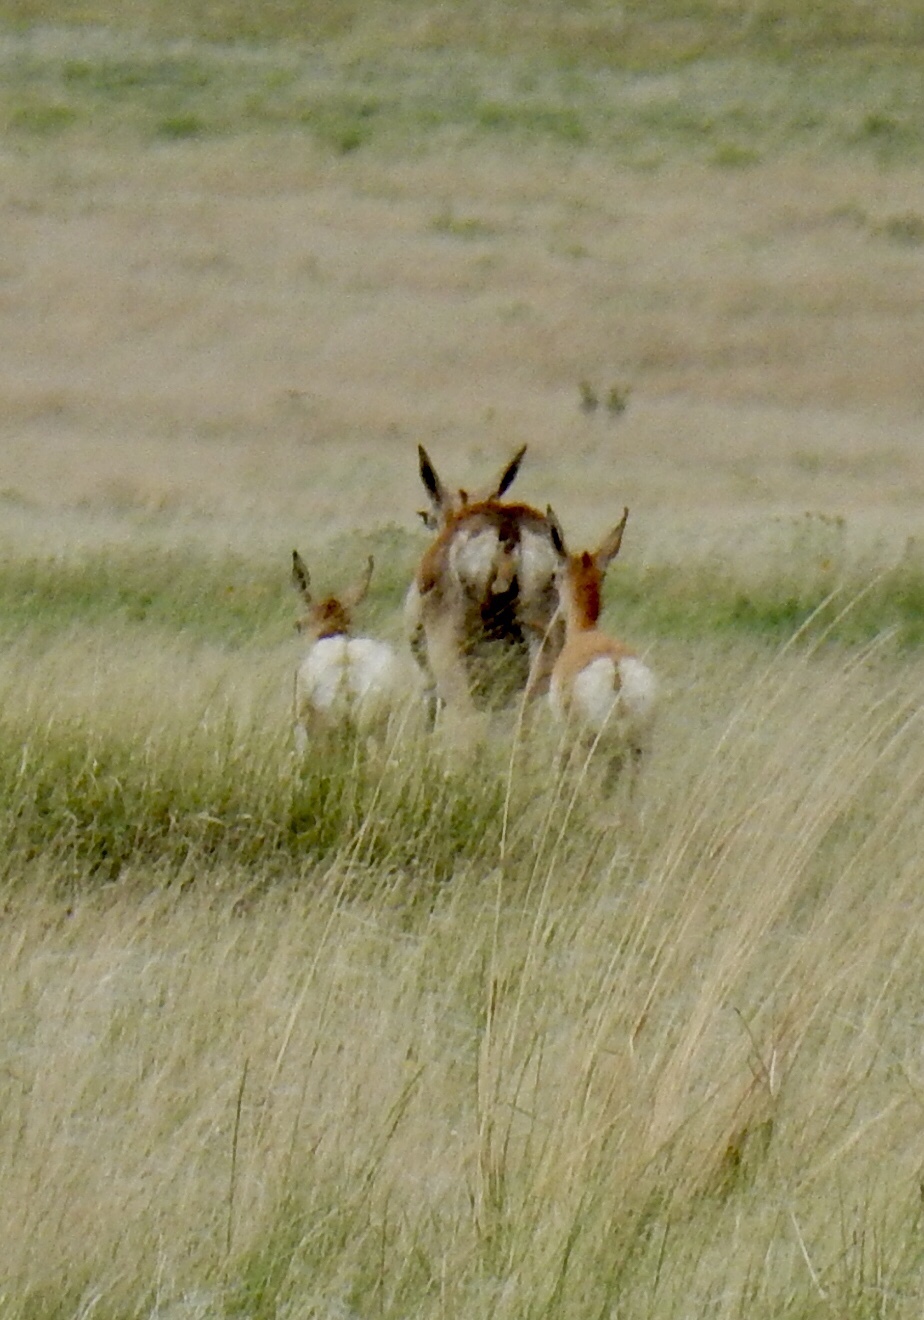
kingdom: Animalia
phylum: Chordata
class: Mammalia
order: Artiodactyla
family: Antilocapridae
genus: Antilocapra
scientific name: Antilocapra americana
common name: Pronghorn
